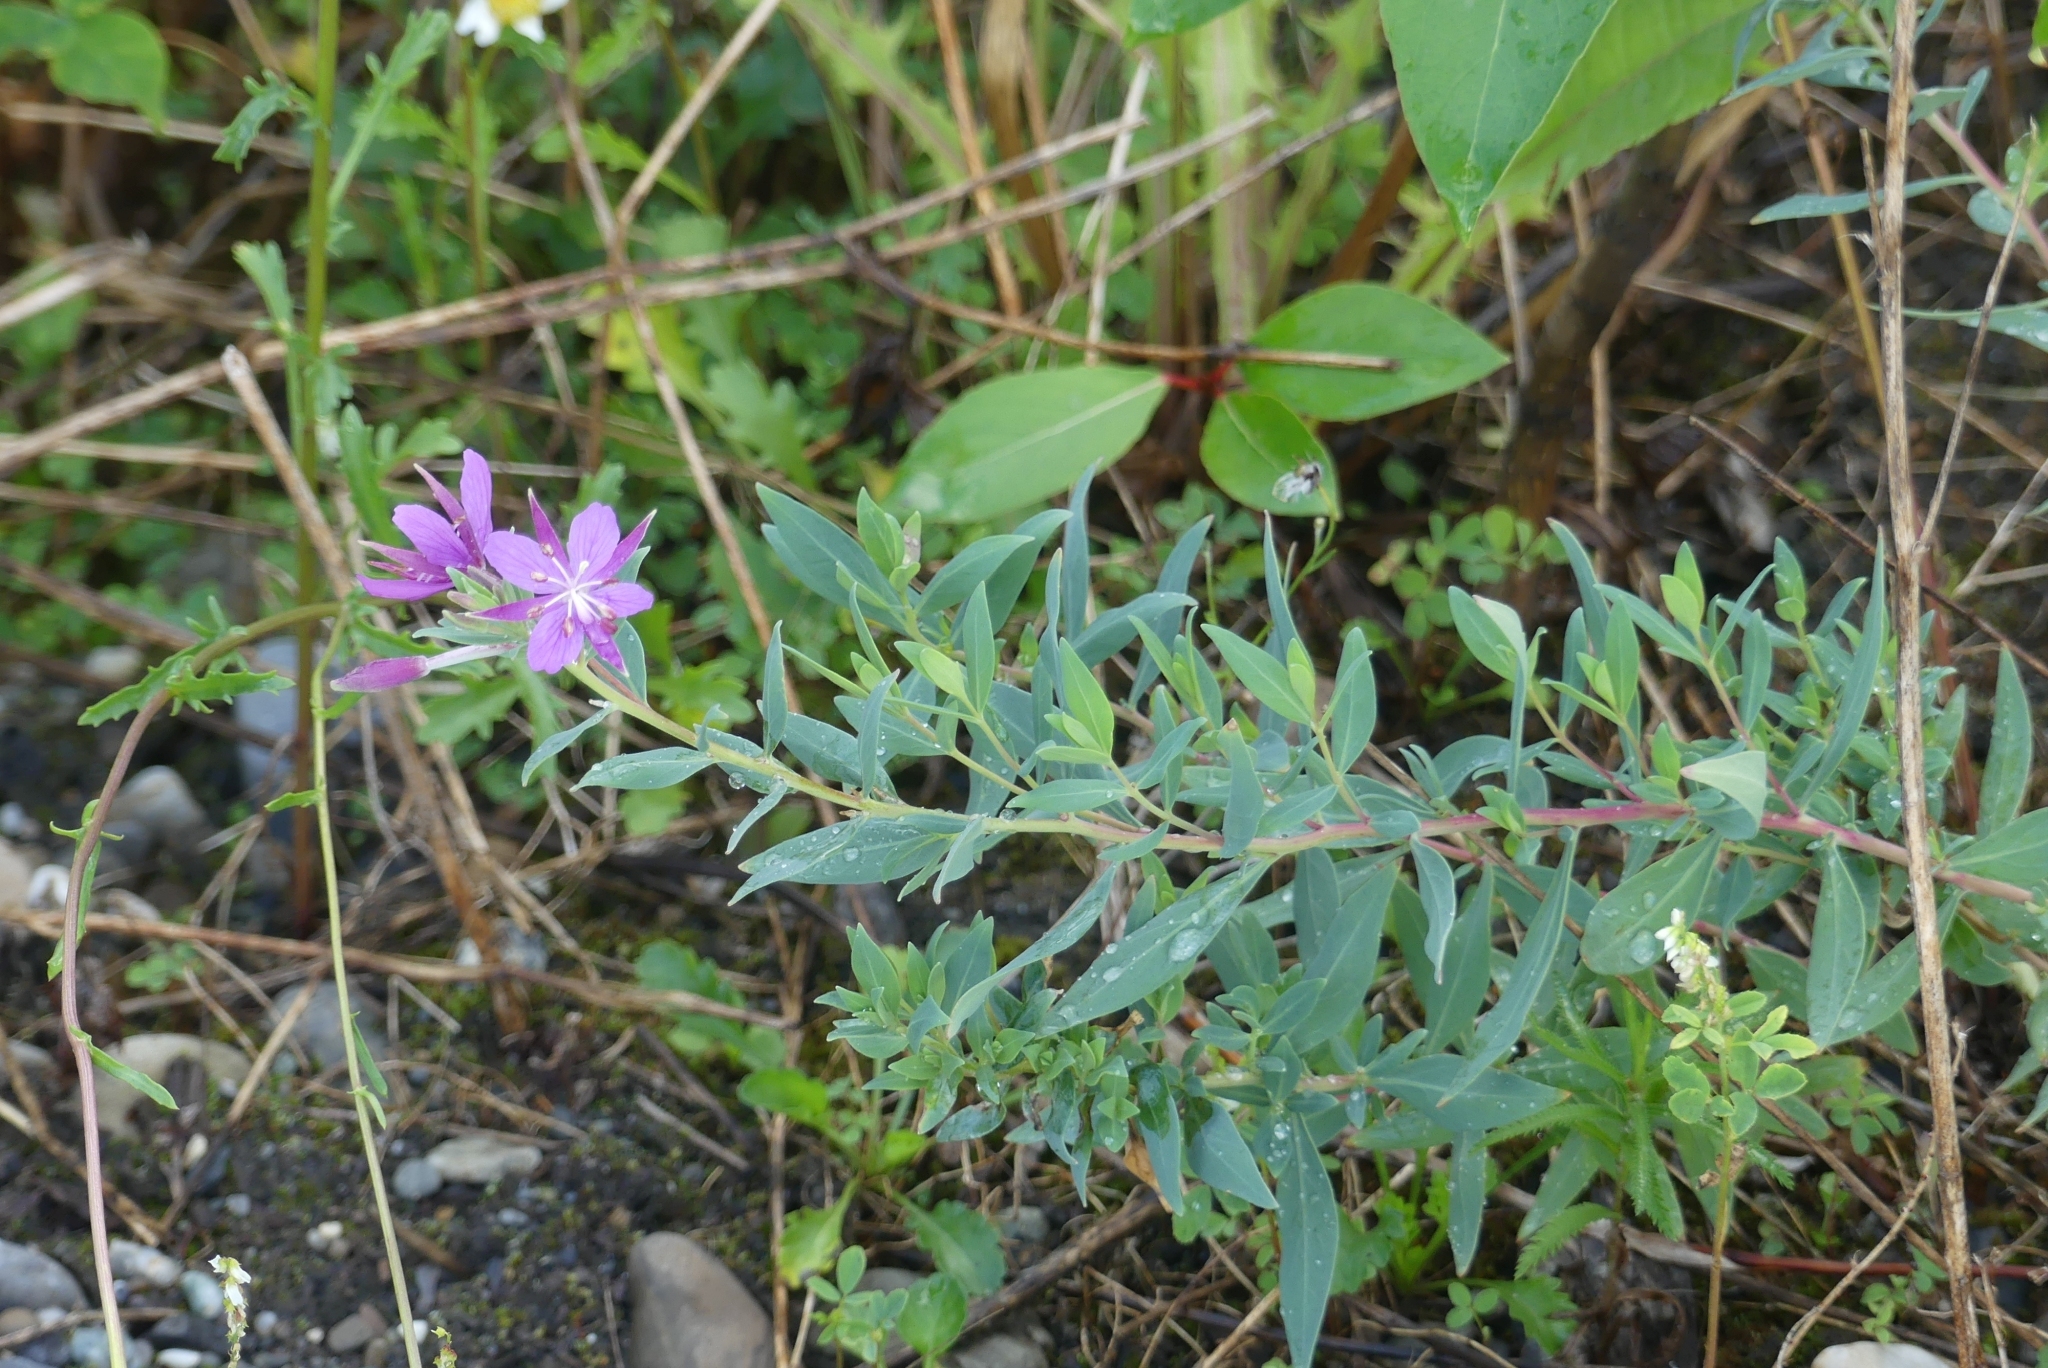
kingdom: Plantae
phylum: Tracheophyta
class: Magnoliopsida
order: Myrtales
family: Onagraceae
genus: Chamaenerion
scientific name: Chamaenerion latifolium
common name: Dwarf fireweed
